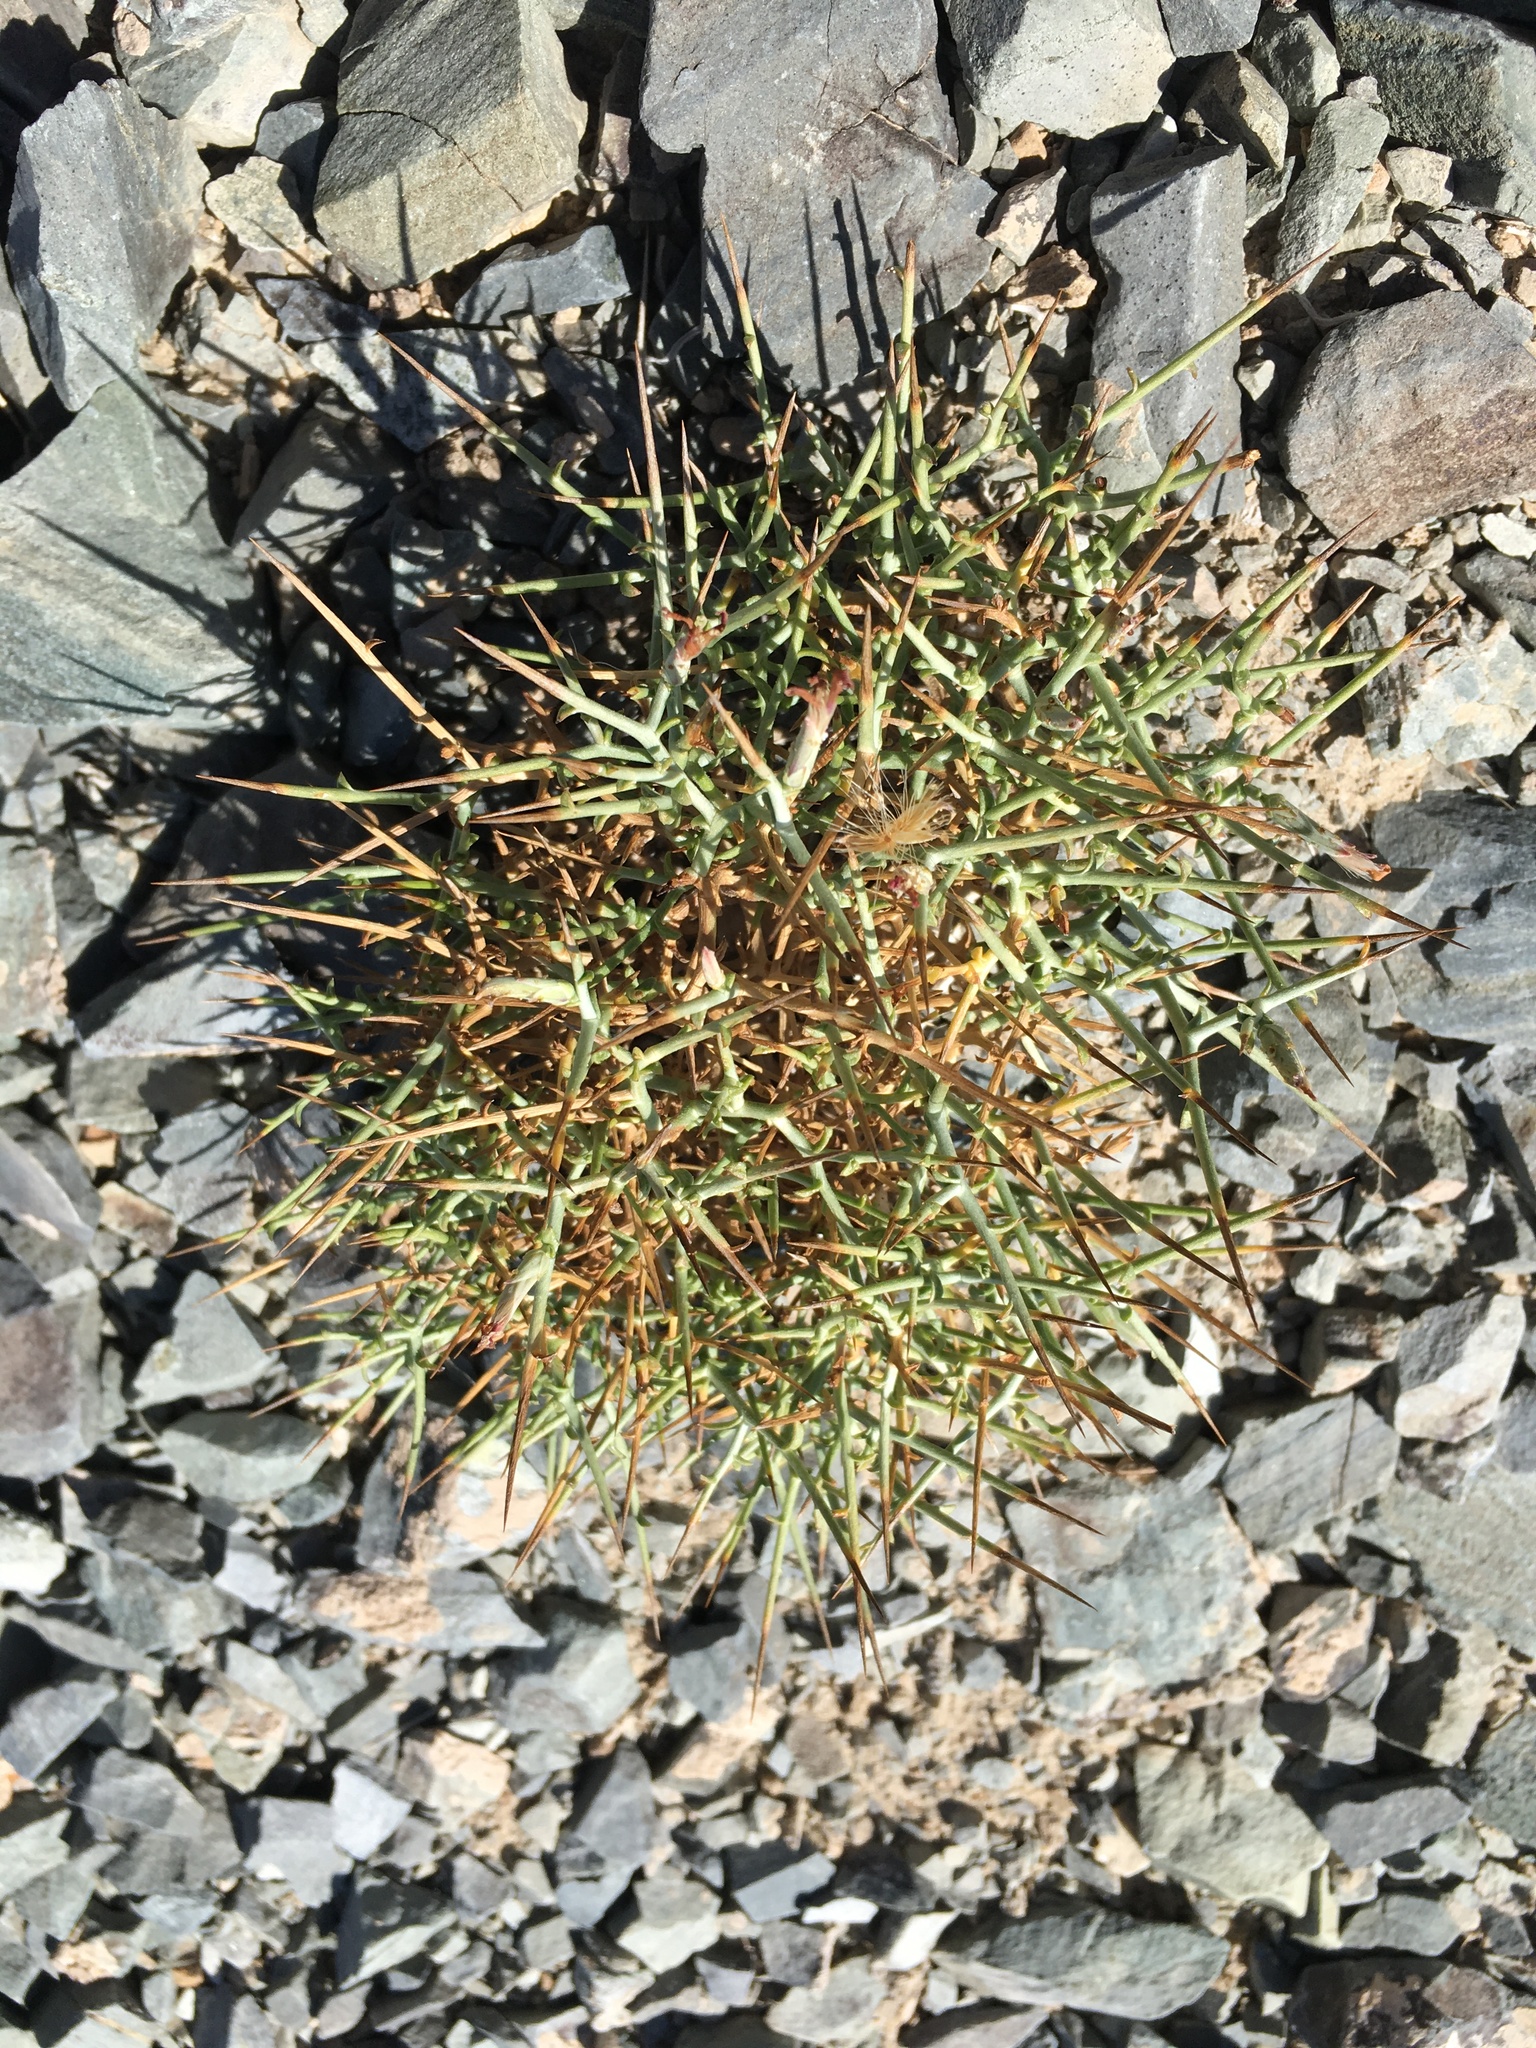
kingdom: Plantae
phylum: Tracheophyta
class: Magnoliopsida
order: Asterales
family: Asteraceae
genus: Pleiacanthus
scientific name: Pleiacanthus spinosus
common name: Thorny skeleton-weed
